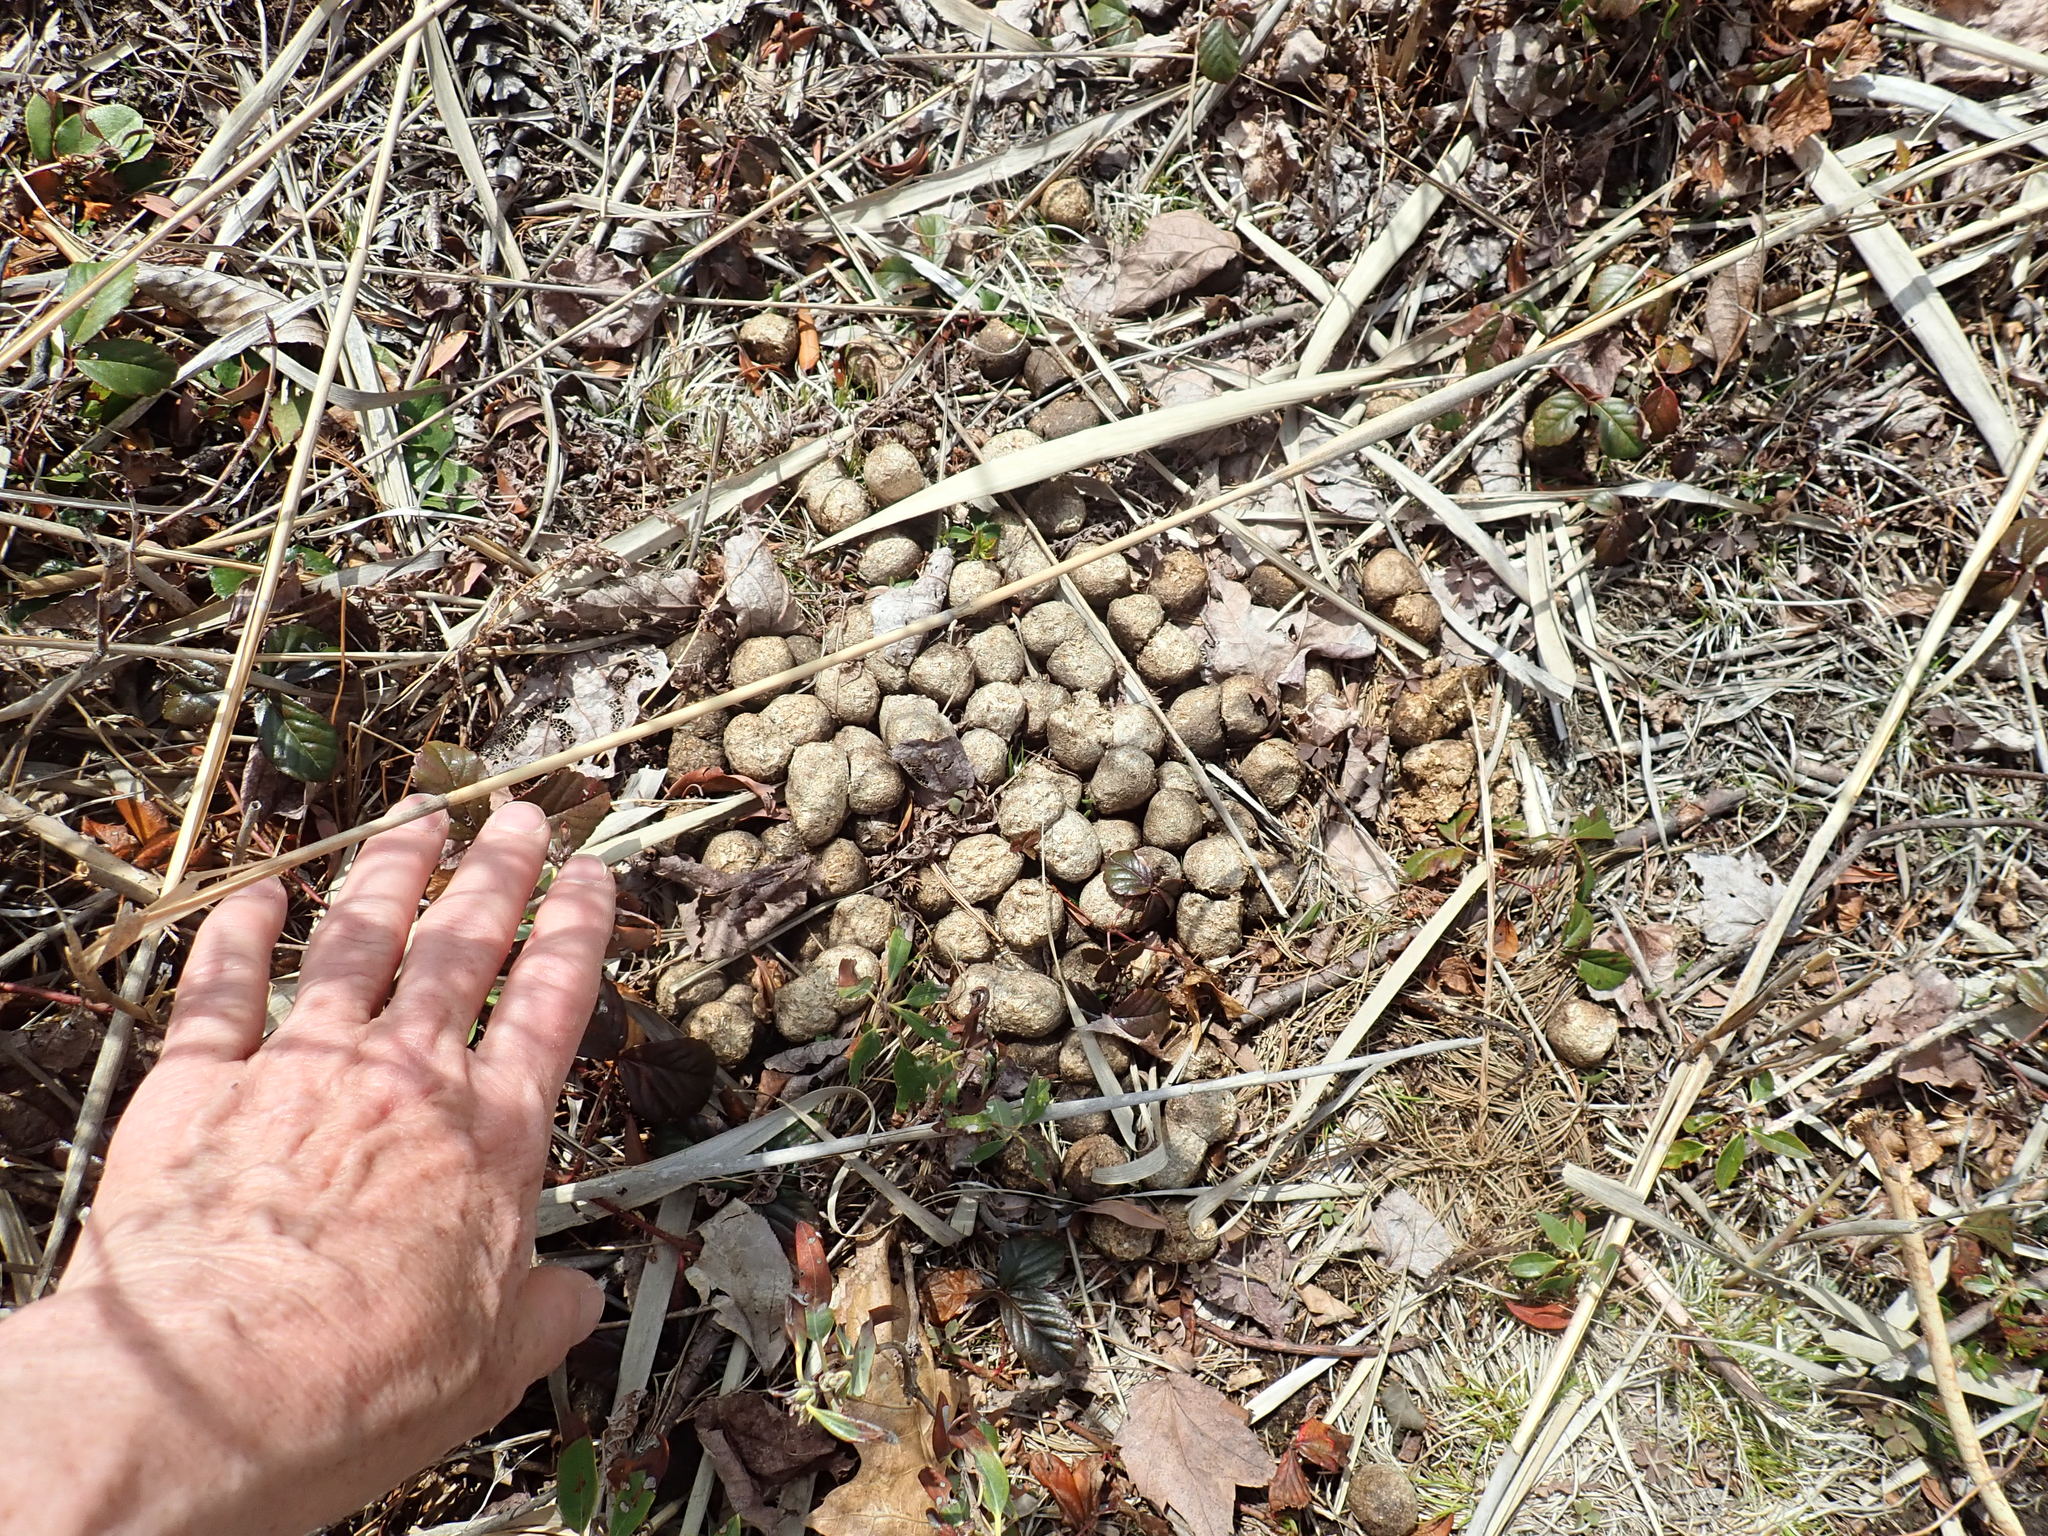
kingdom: Animalia
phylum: Chordata
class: Mammalia
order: Artiodactyla
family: Cervidae
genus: Alces
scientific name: Alces alces
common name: Moose
